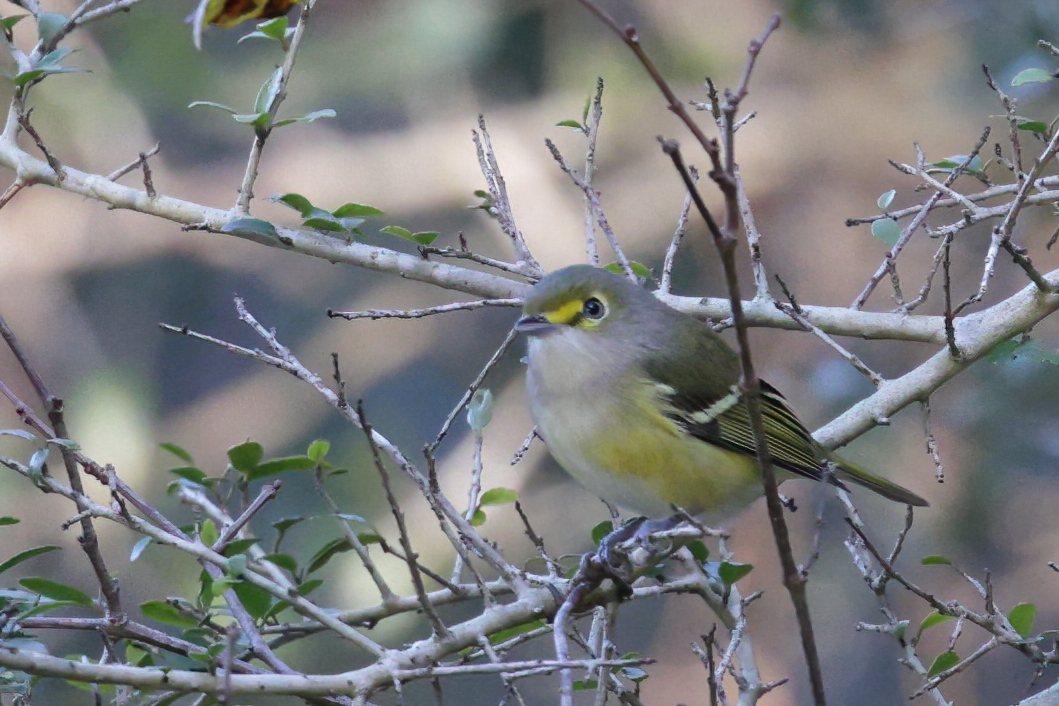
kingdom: Animalia
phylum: Chordata
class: Aves
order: Passeriformes
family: Vireonidae
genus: Vireo
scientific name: Vireo griseus
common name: White-eyed vireo
